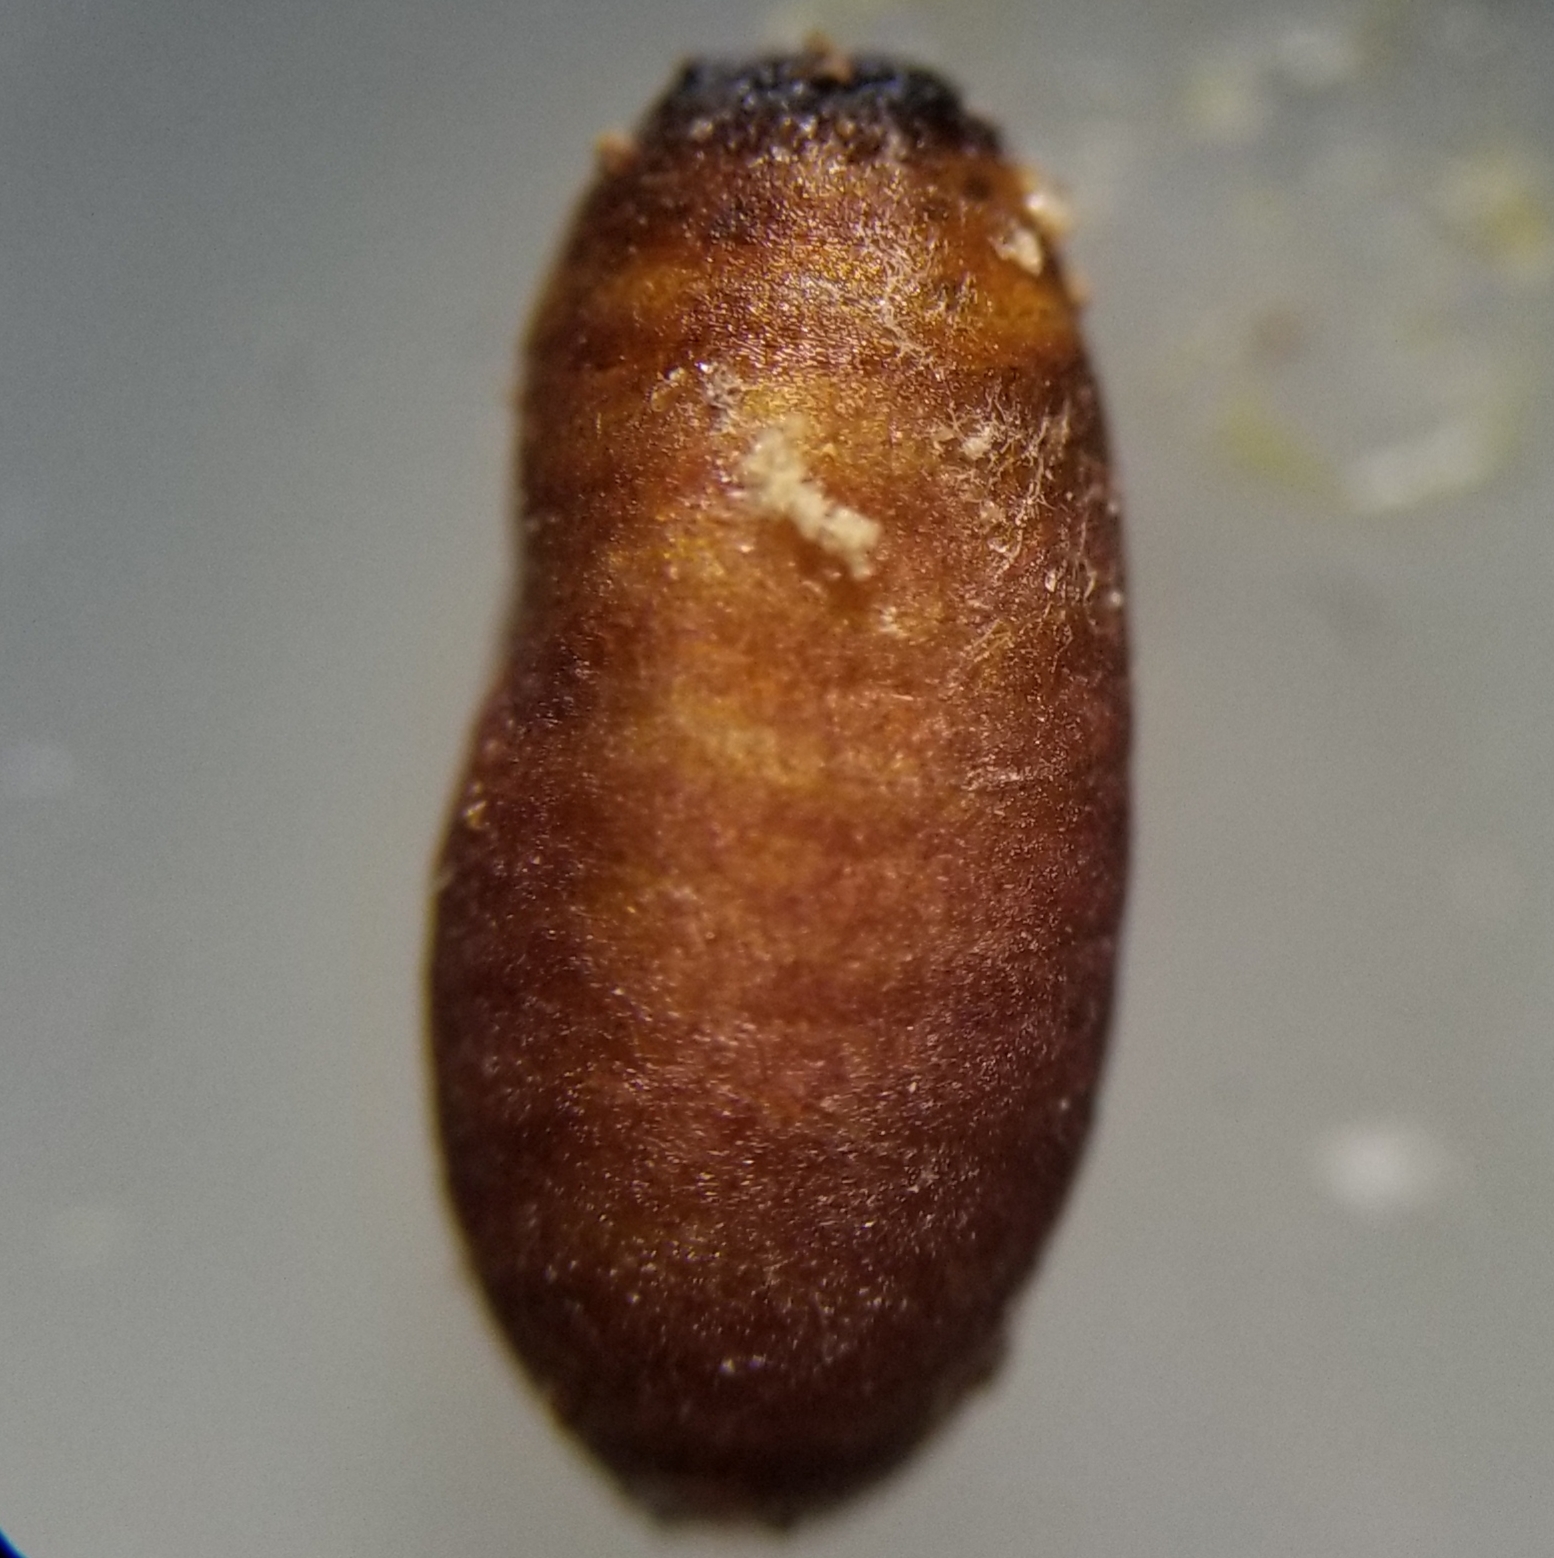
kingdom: Animalia
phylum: Arthropoda
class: Insecta
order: Diptera
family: Tephritidae
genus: Eurosta
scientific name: Eurosta solidaginis
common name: Goldenrod gall fly
